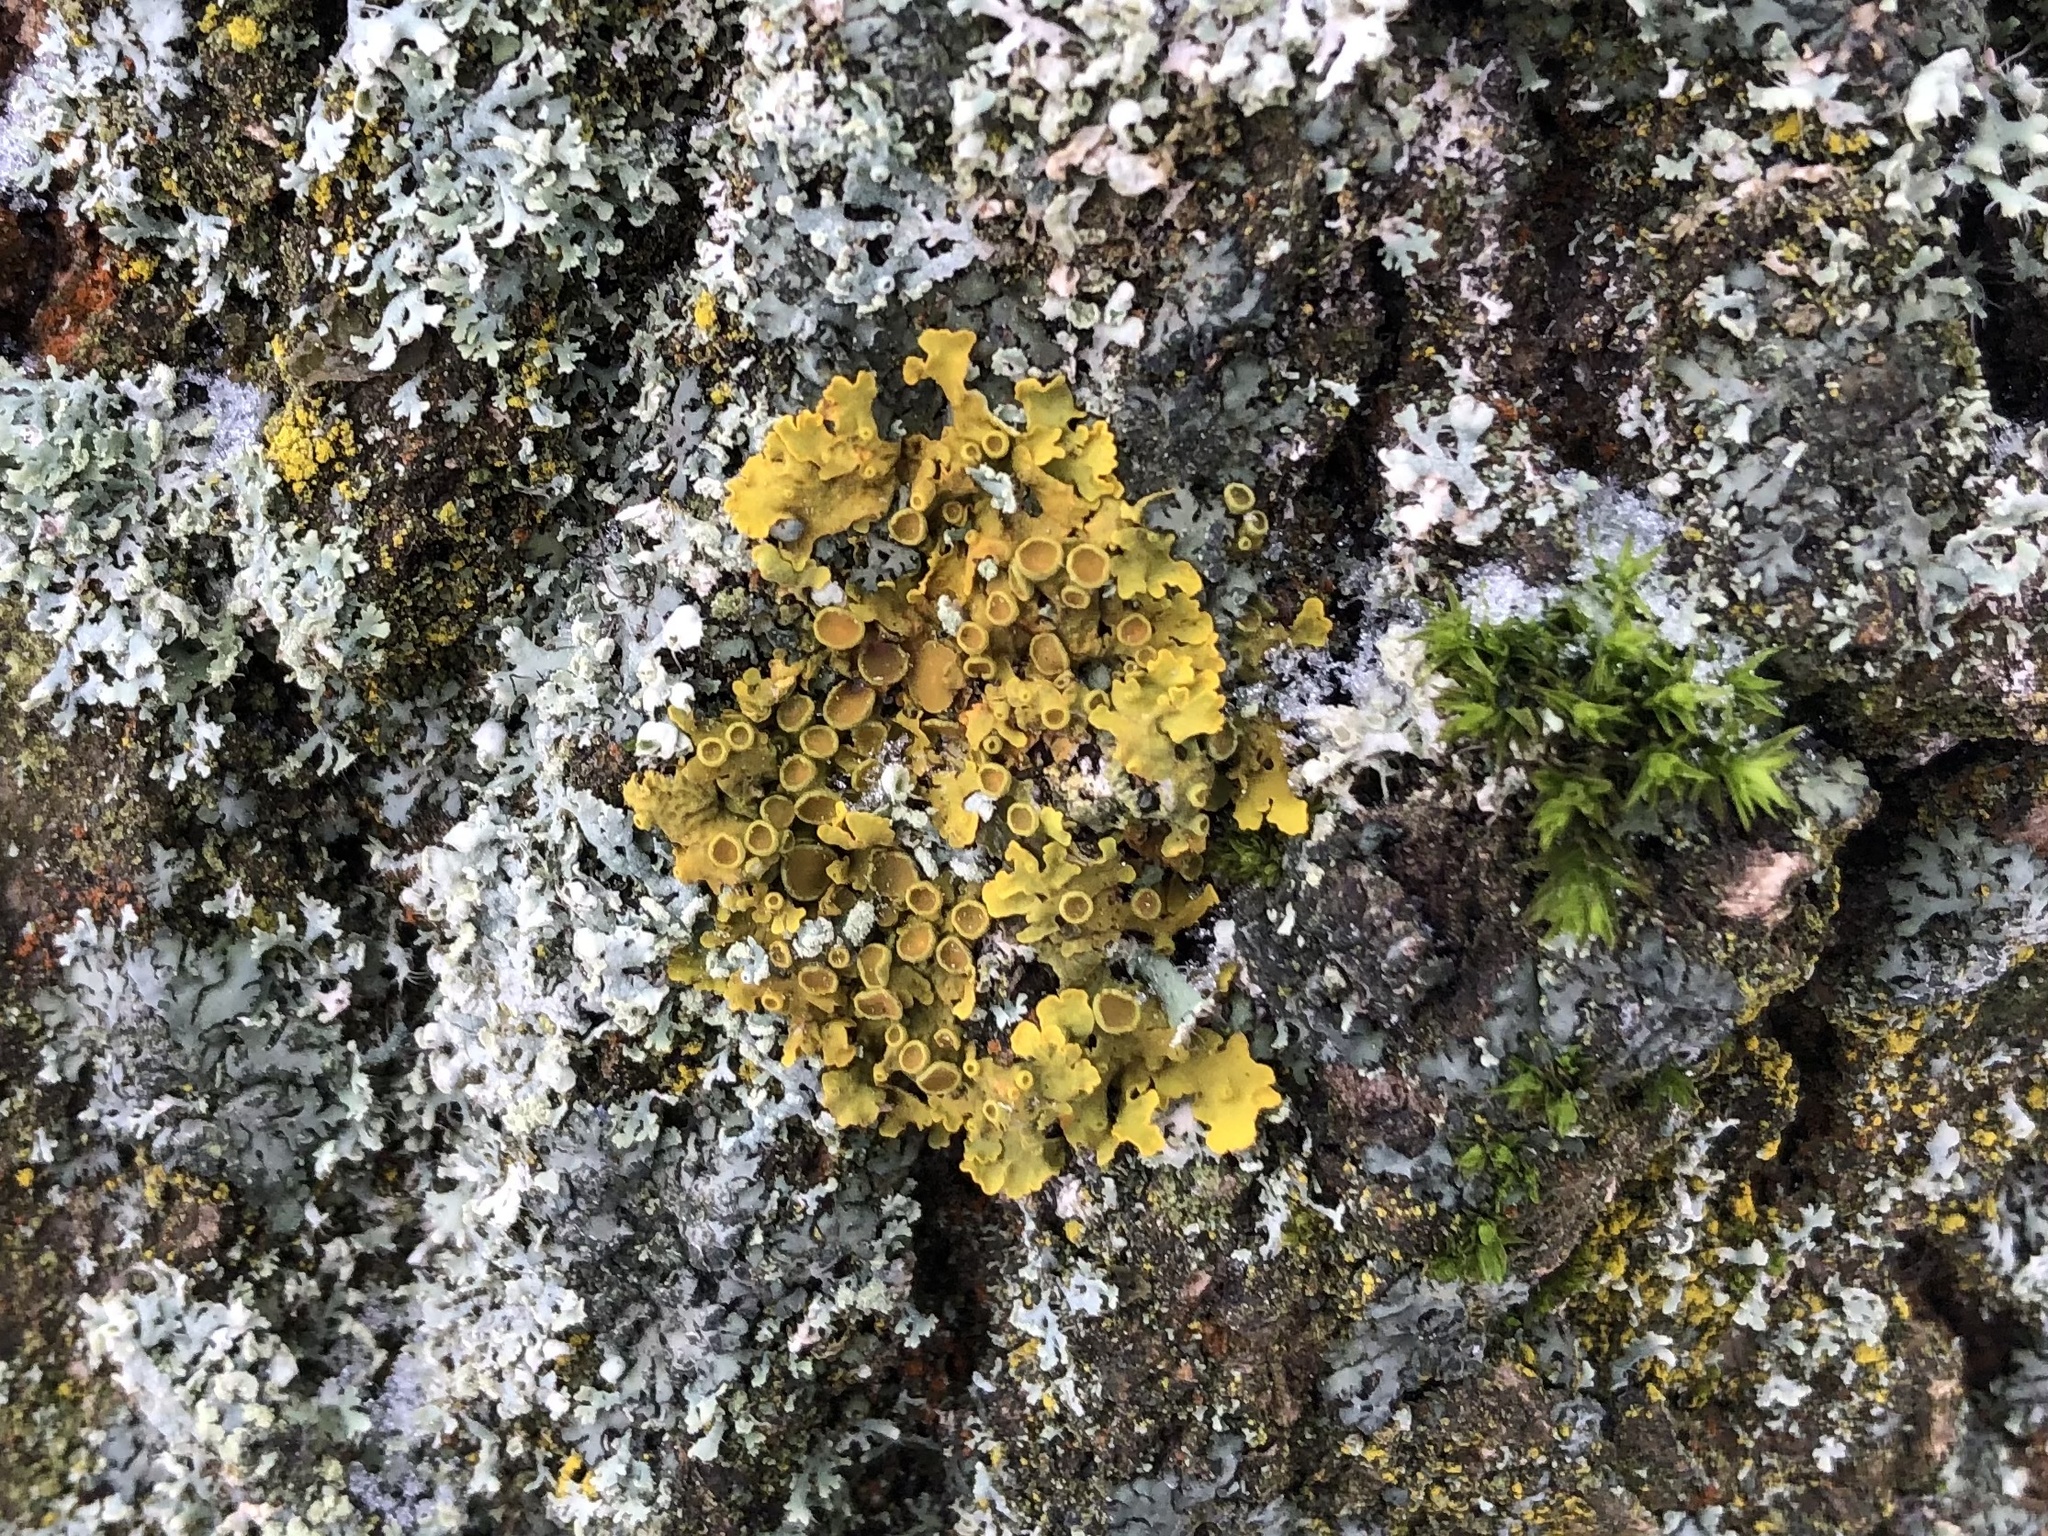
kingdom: Fungi
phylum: Ascomycota
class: Lecanoromycetes
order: Teloschistales
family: Teloschistaceae
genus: Xanthoria
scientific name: Xanthoria parietina
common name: Common orange lichen
